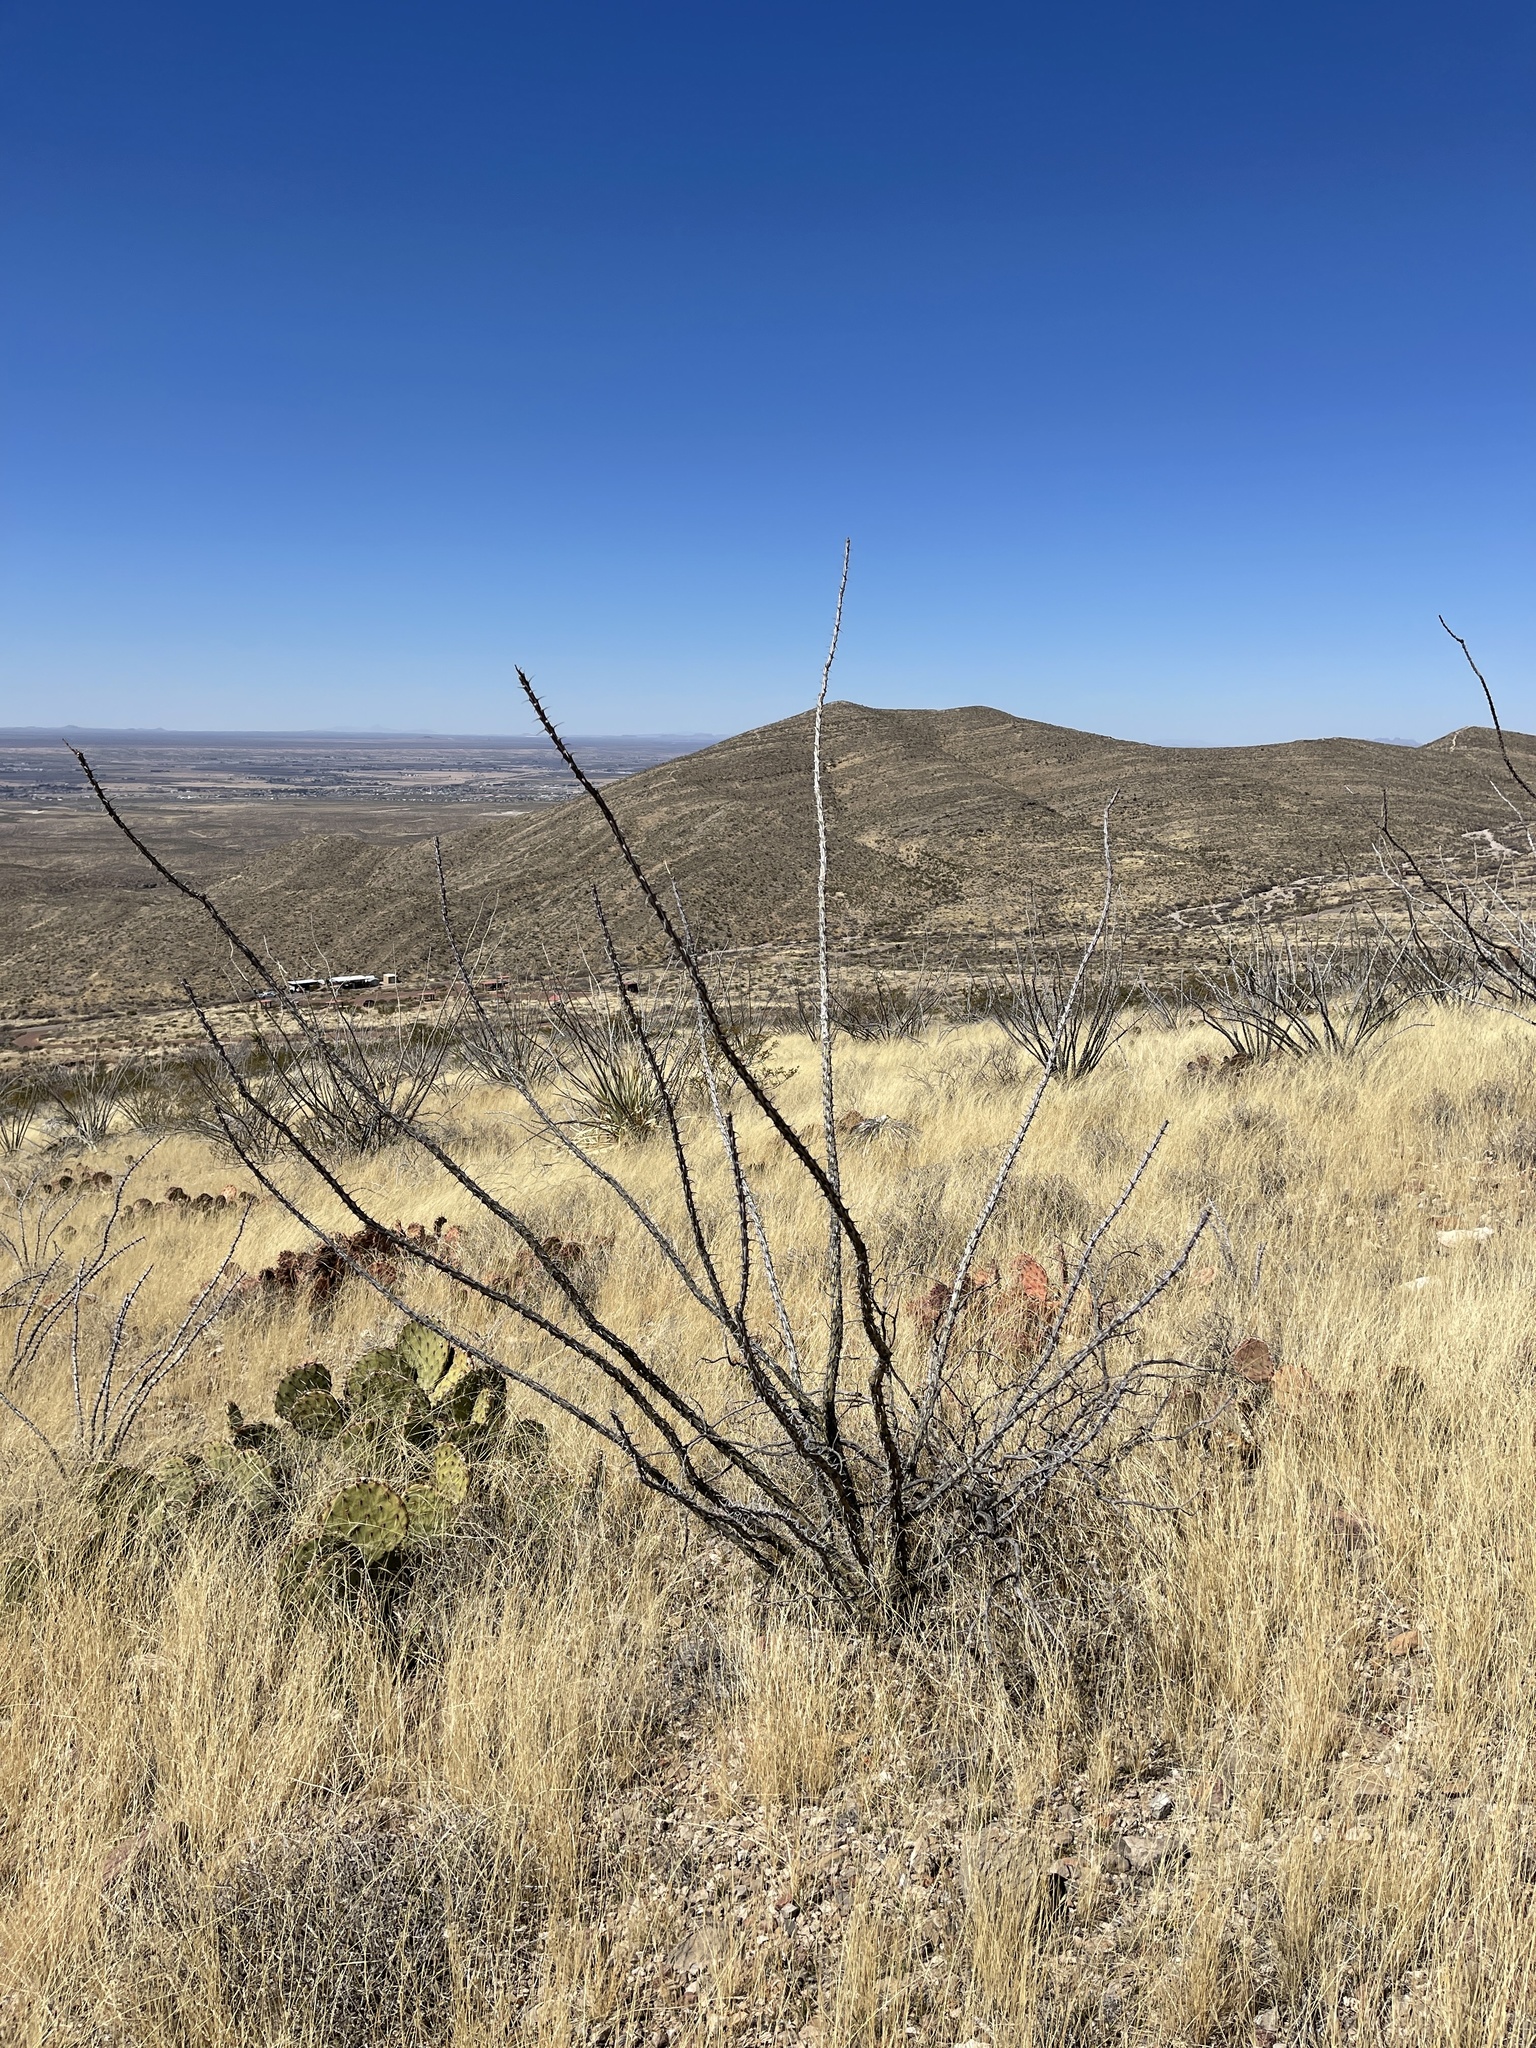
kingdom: Plantae
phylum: Tracheophyta
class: Magnoliopsida
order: Ericales
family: Fouquieriaceae
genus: Fouquieria
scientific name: Fouquieria splendens
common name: Vine-cactus
